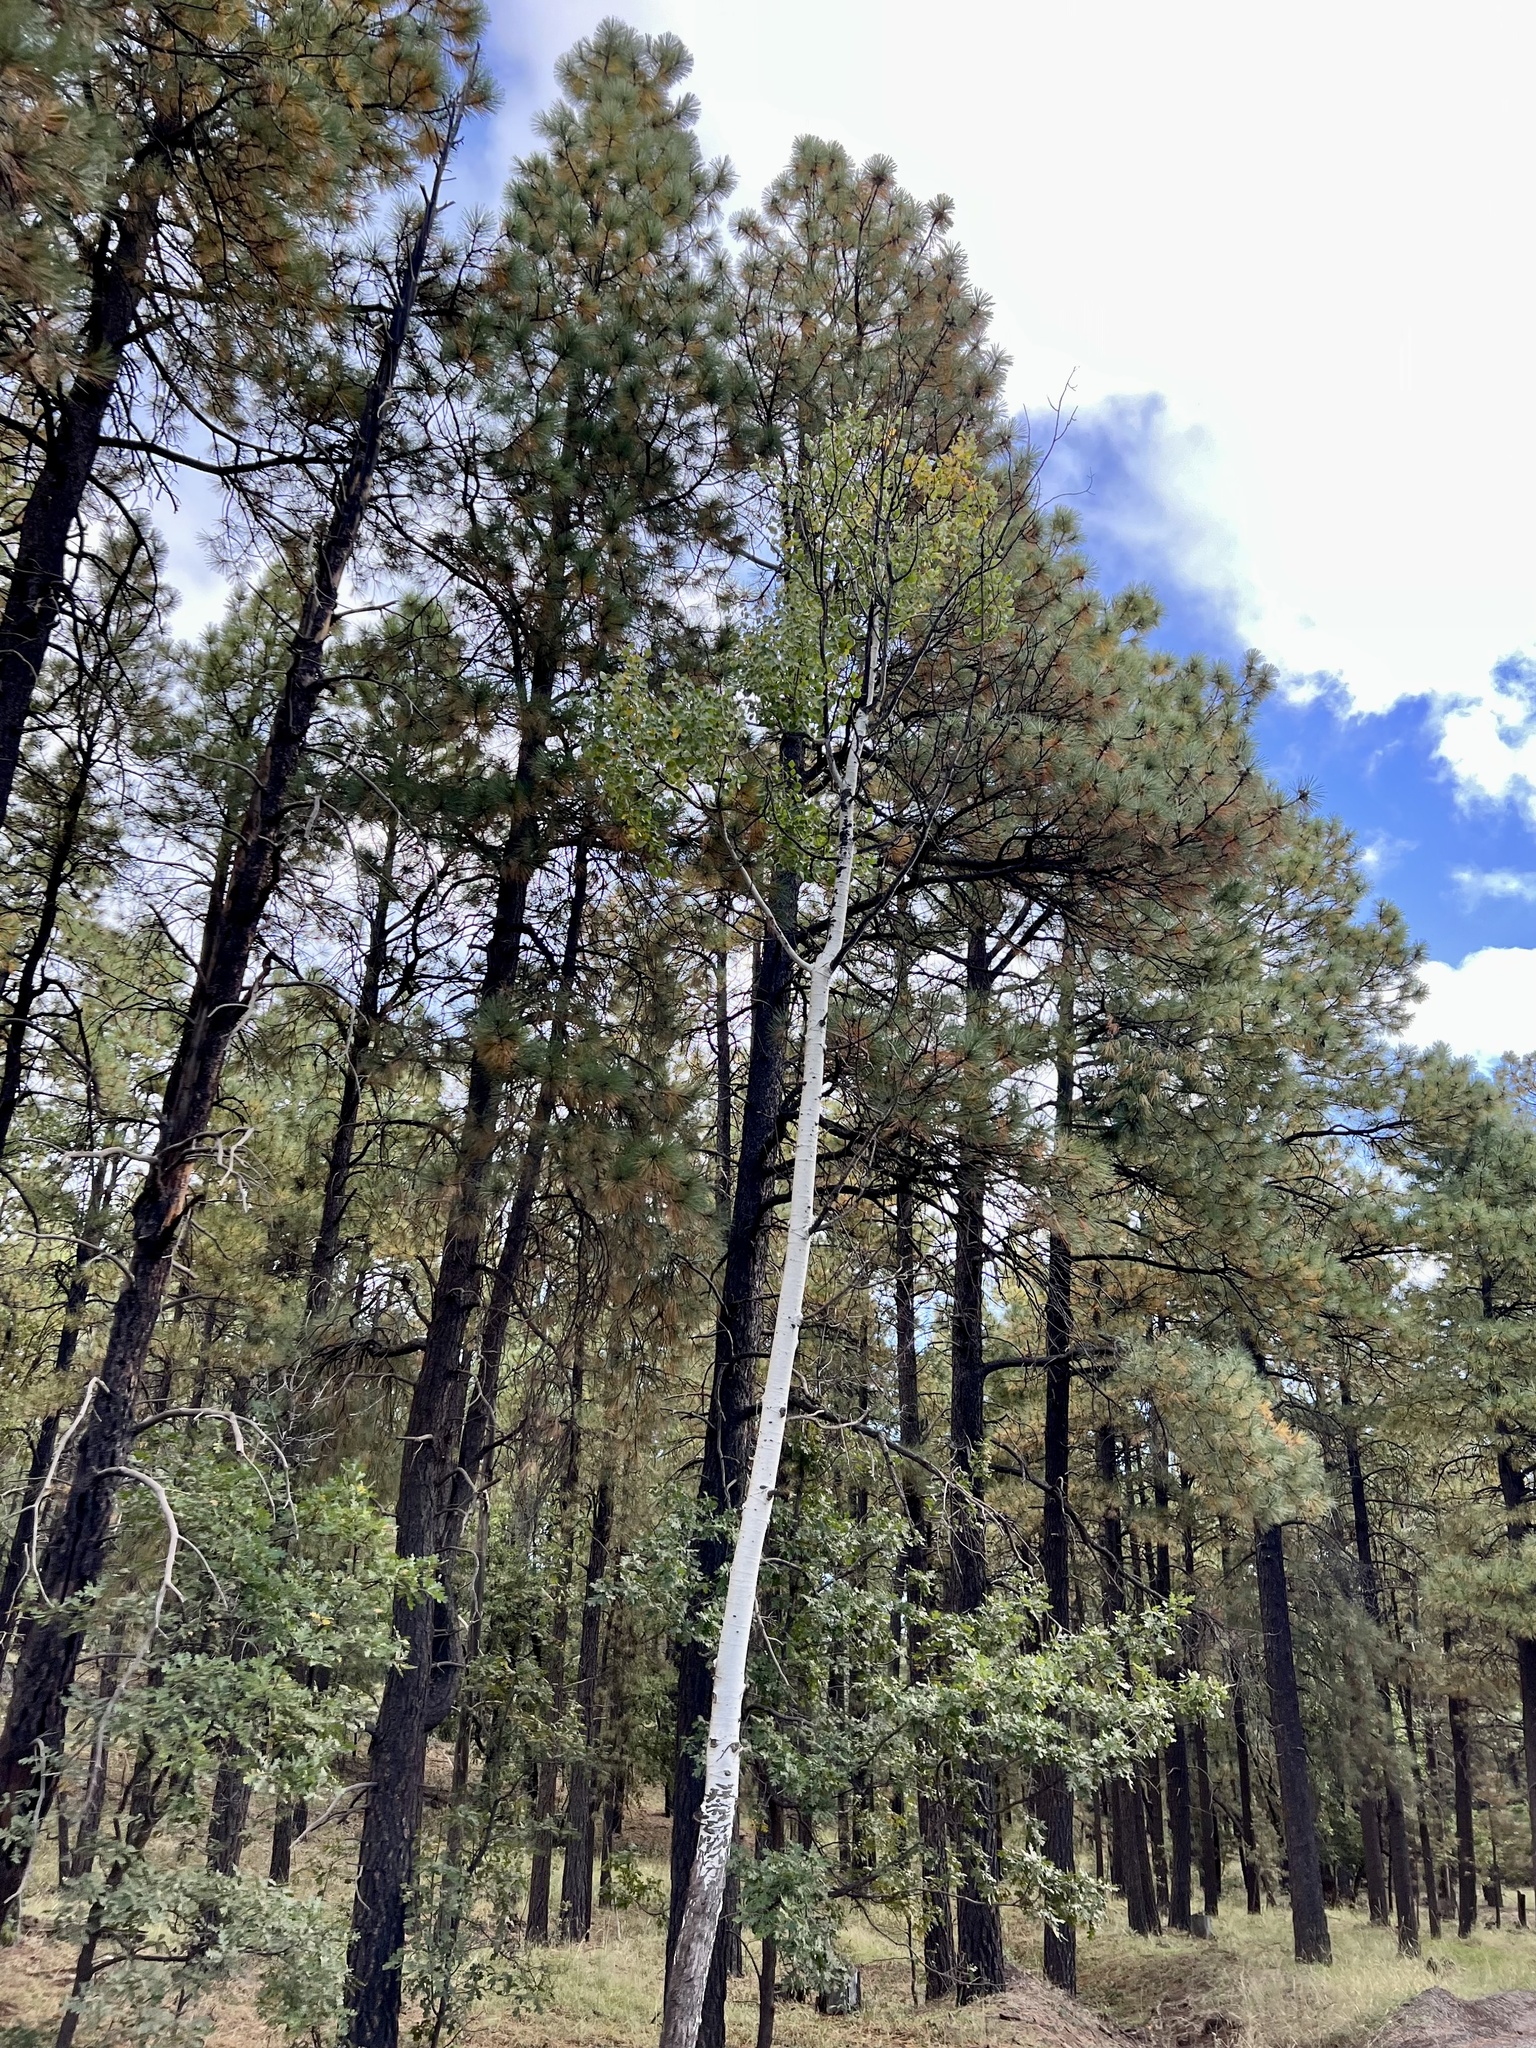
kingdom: Plantae
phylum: Tracheophyta
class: Magnoliopsida
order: Malpighiales
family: Salicaceae
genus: Populus
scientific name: Populus tremuloides
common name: Quaking aspen
